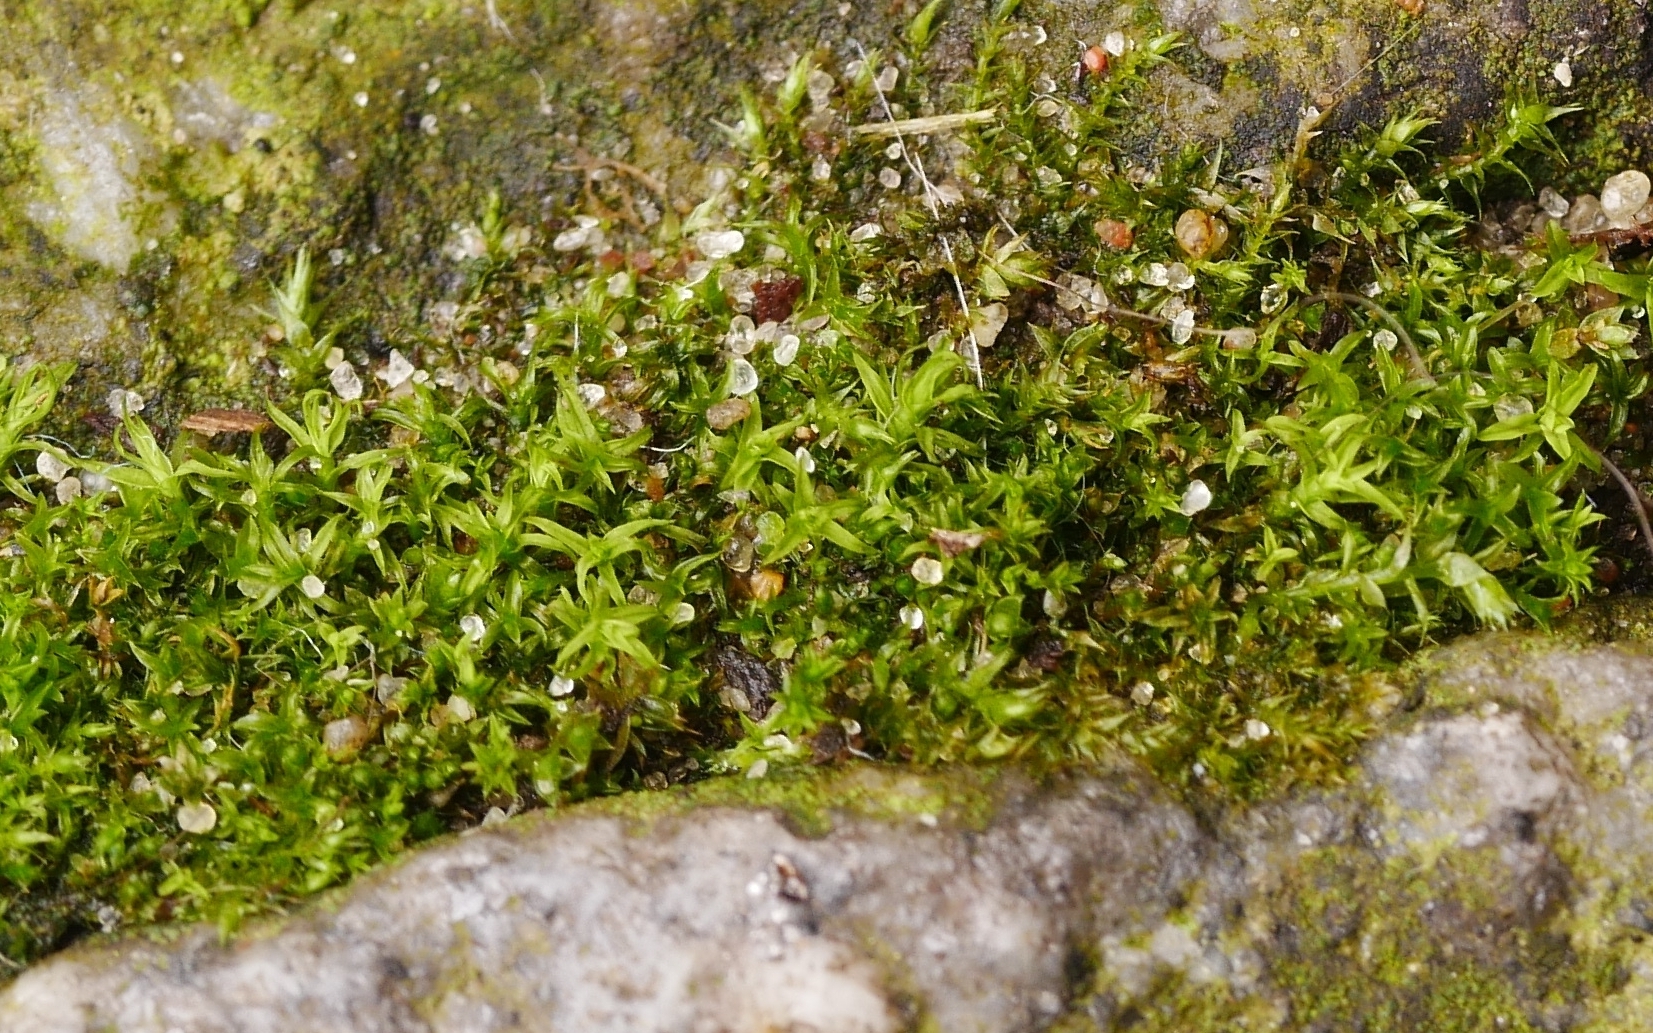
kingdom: Plantae
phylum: Bryophyta
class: Bryopsida
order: Pottiales
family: Pottiaceae
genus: Barbula
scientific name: Barbula unguiculata
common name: Prickly beard moss
